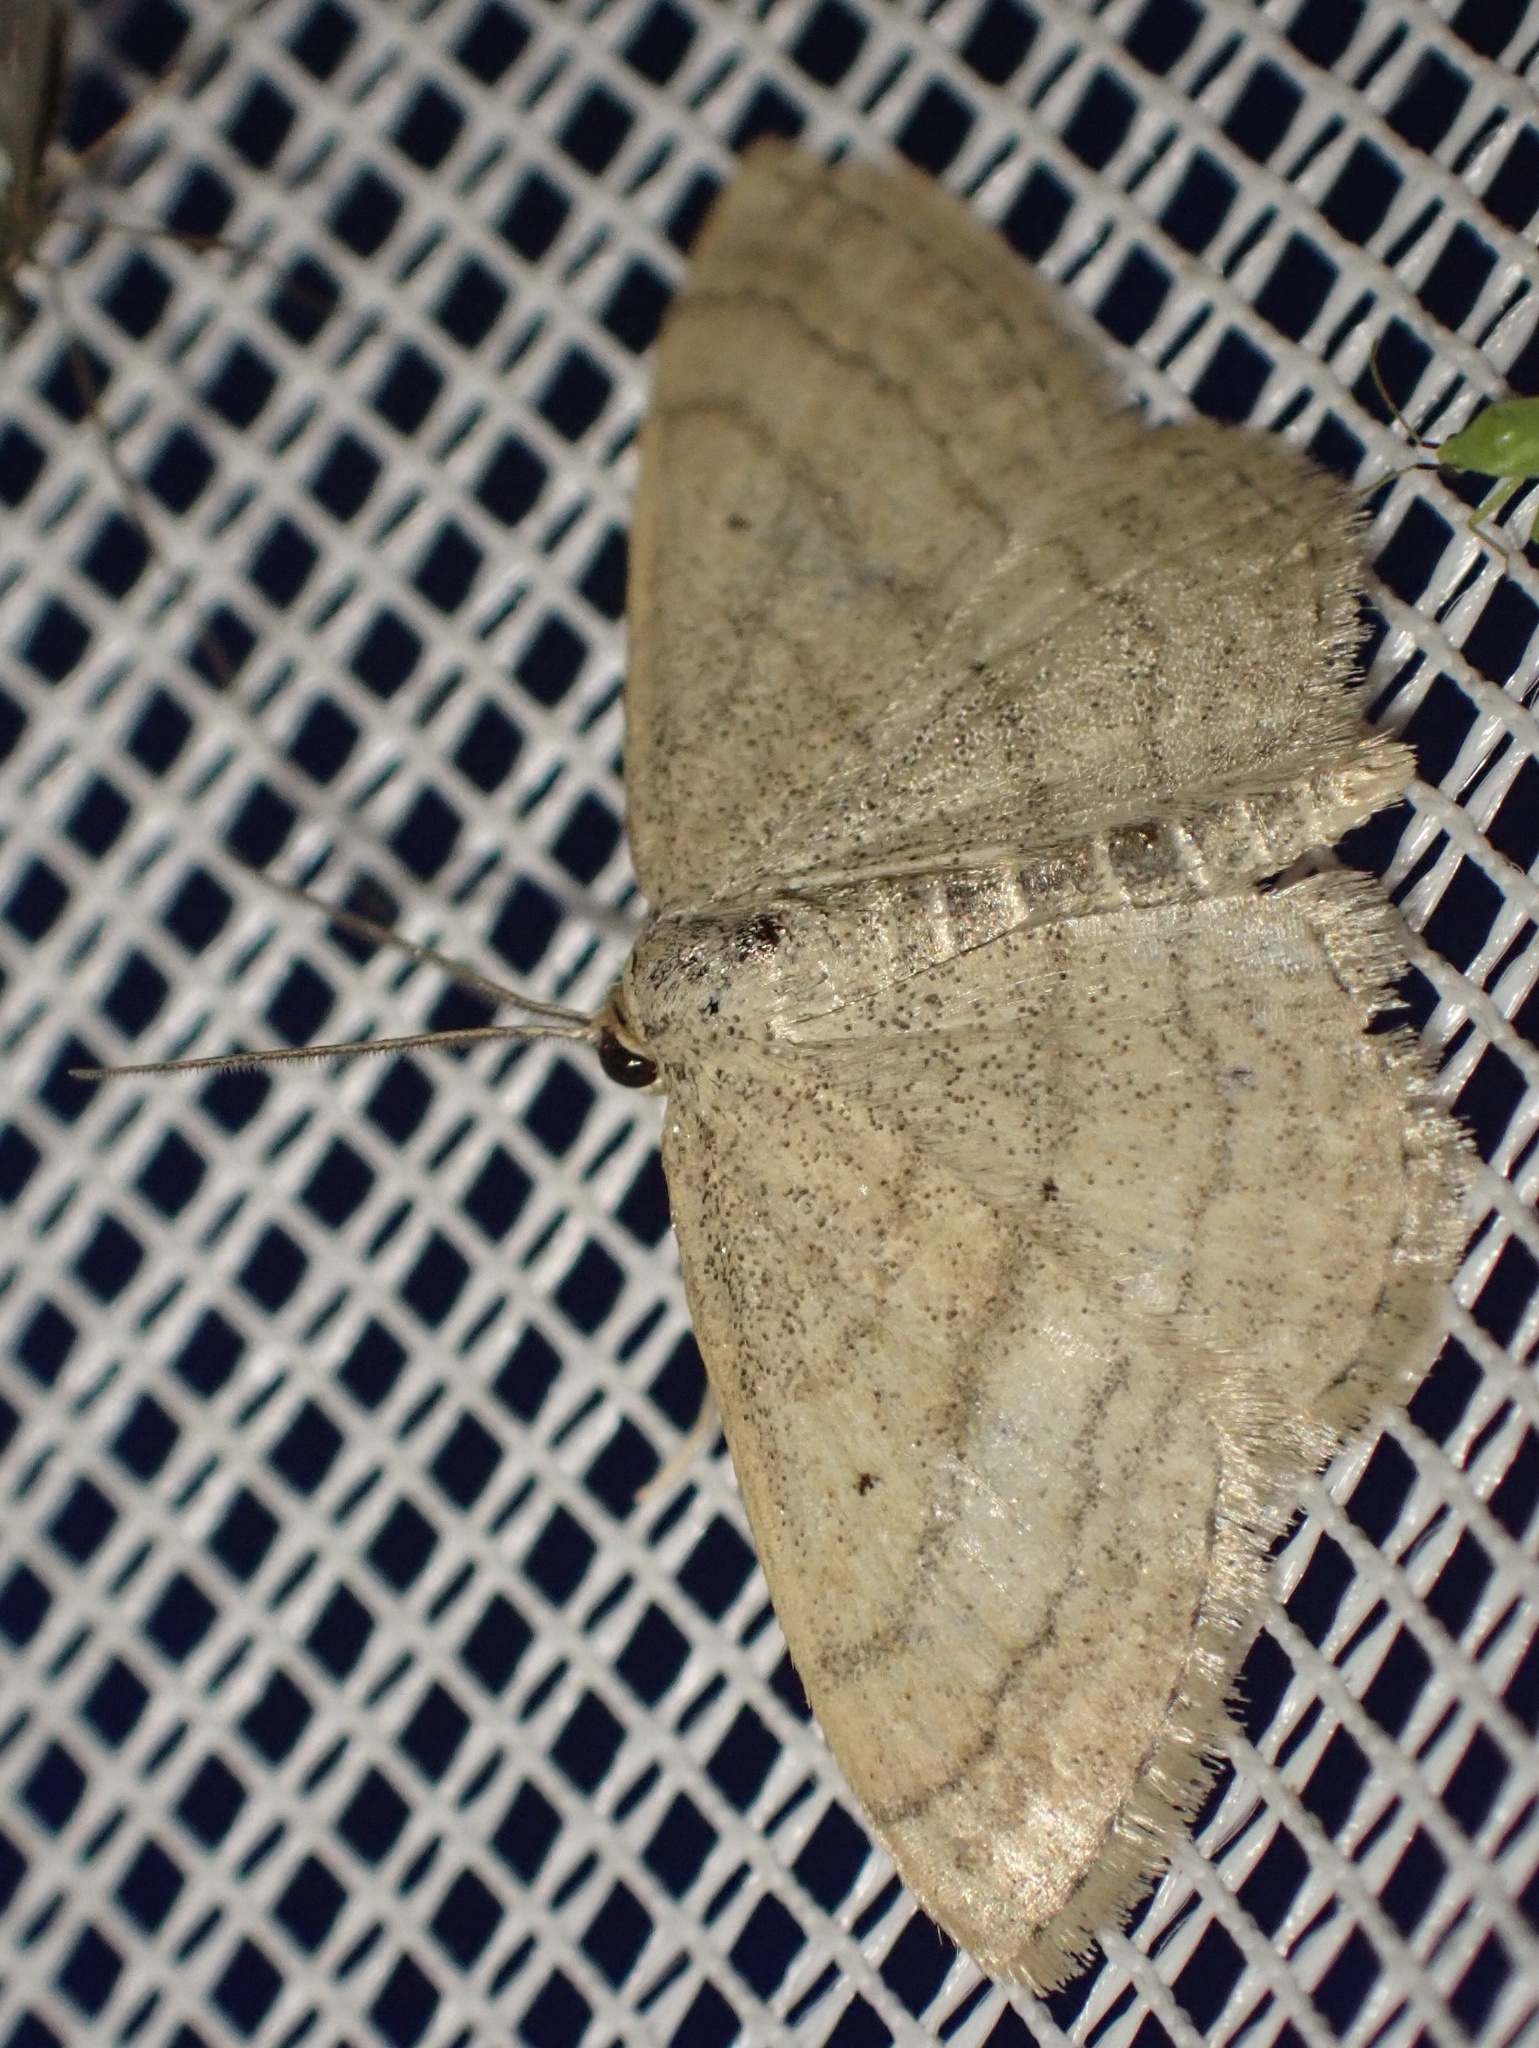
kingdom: Animalia
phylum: Arthropoda
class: Insecta
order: Lepidoptera
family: Geometridae
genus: Scopula
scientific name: Scopula turbidaria
